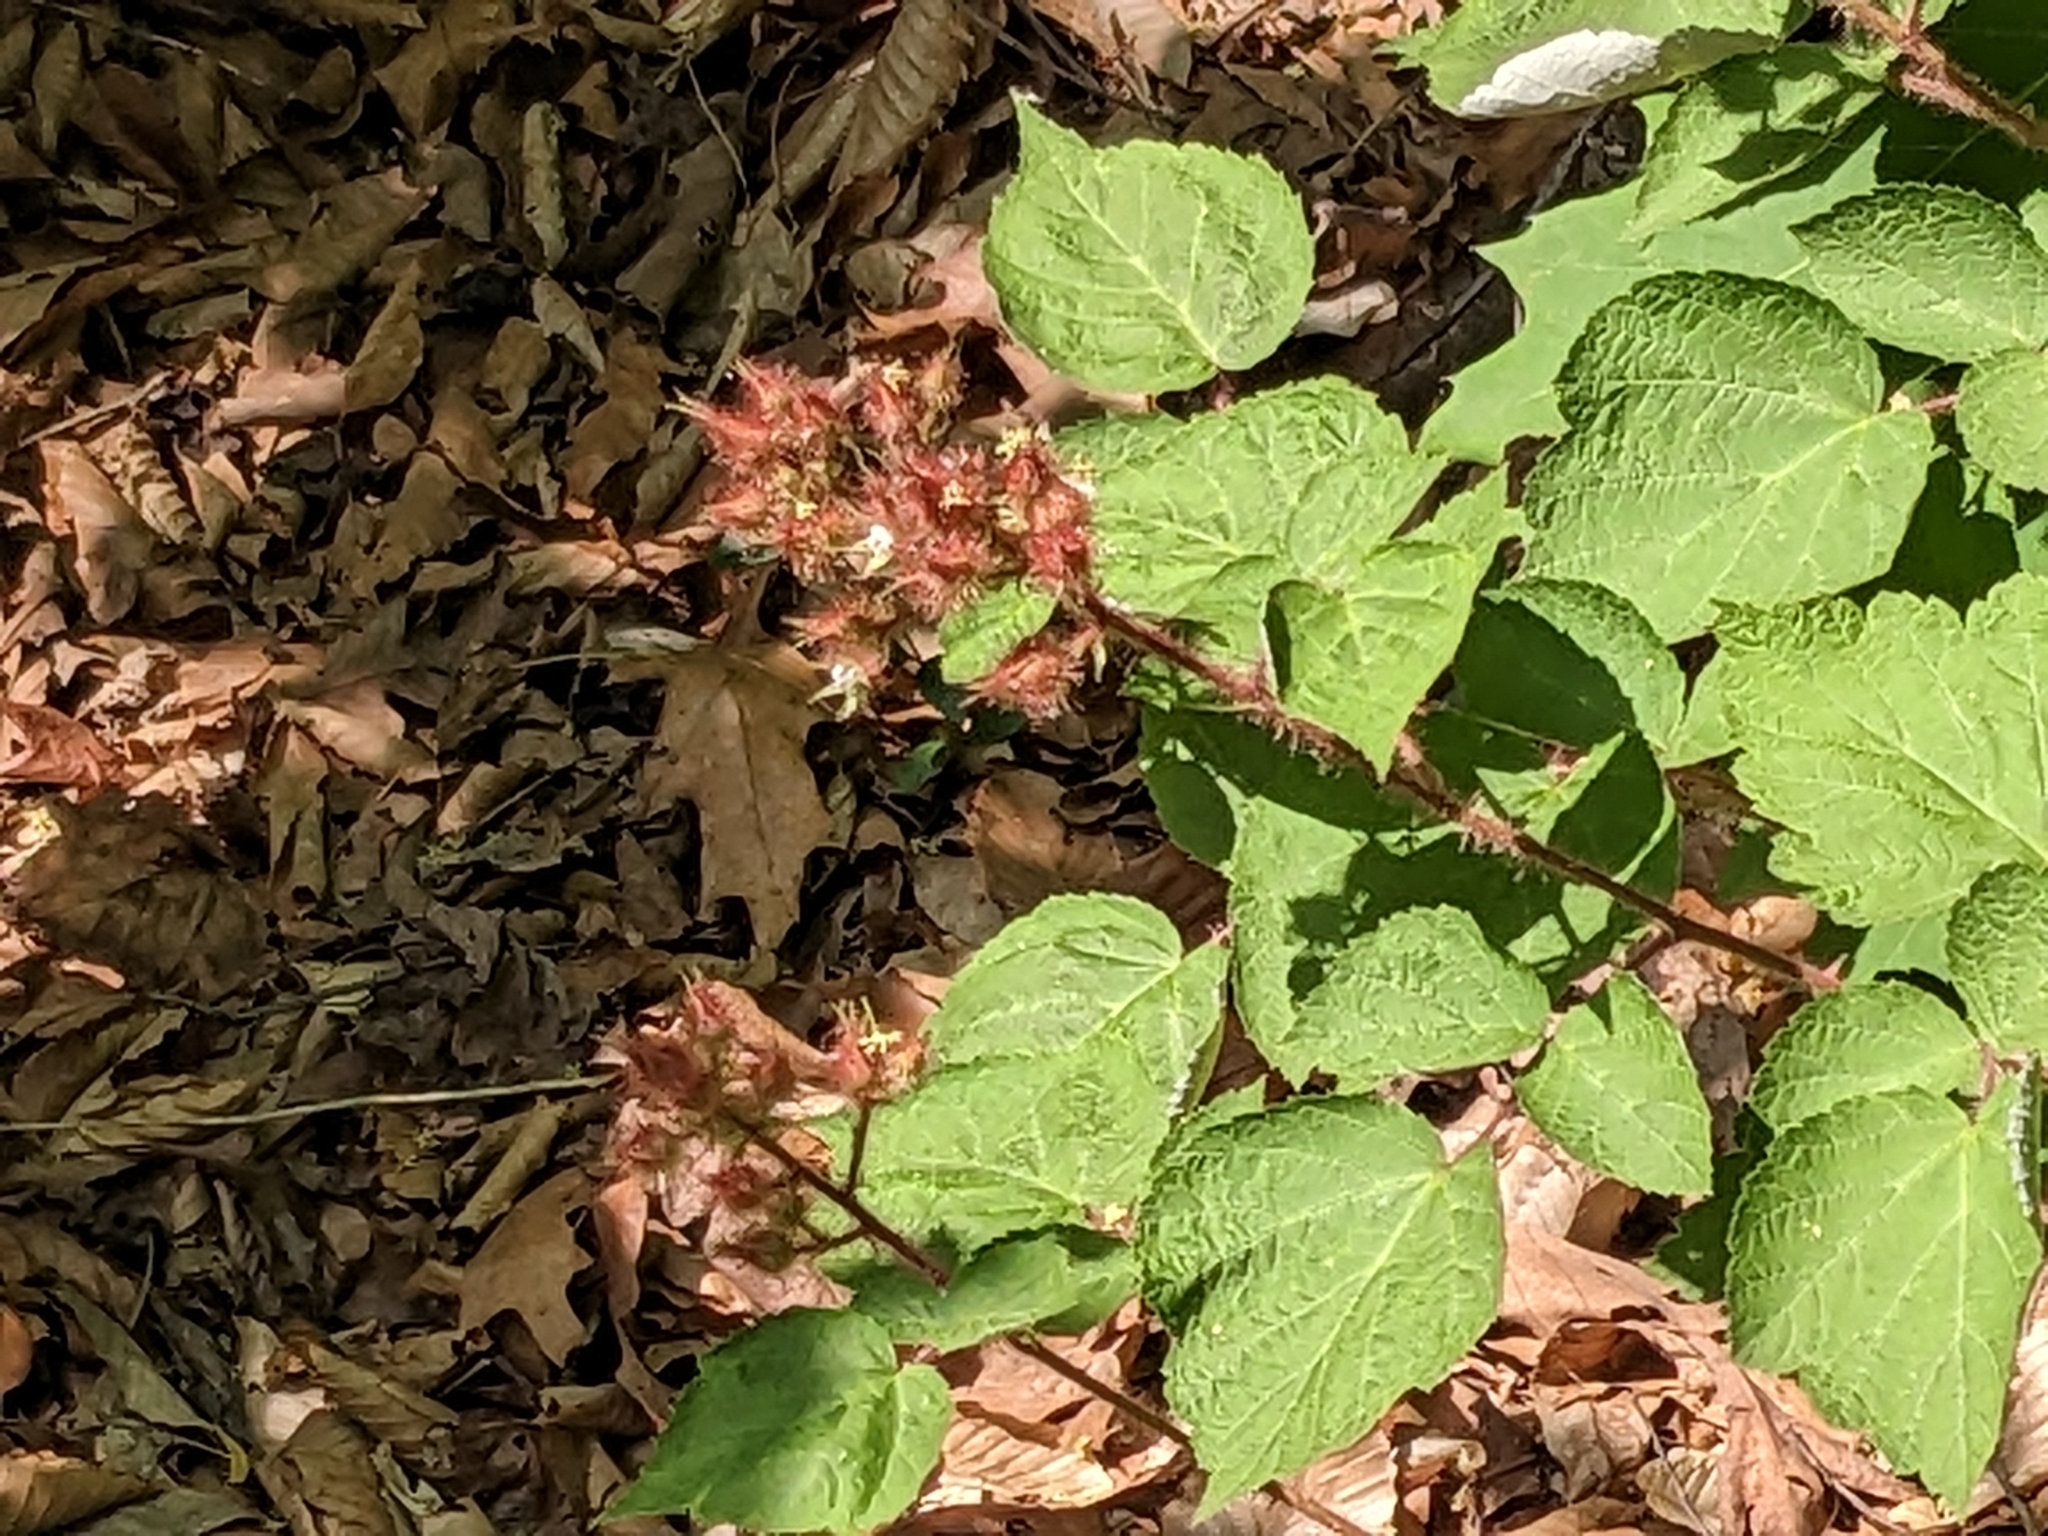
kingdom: Plantae
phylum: Tracheophyta
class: Magnoliopsida
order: Rosales
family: Rosaceae
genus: Rubus
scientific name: Rubus phoenicolasius
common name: Japanese wineberry
